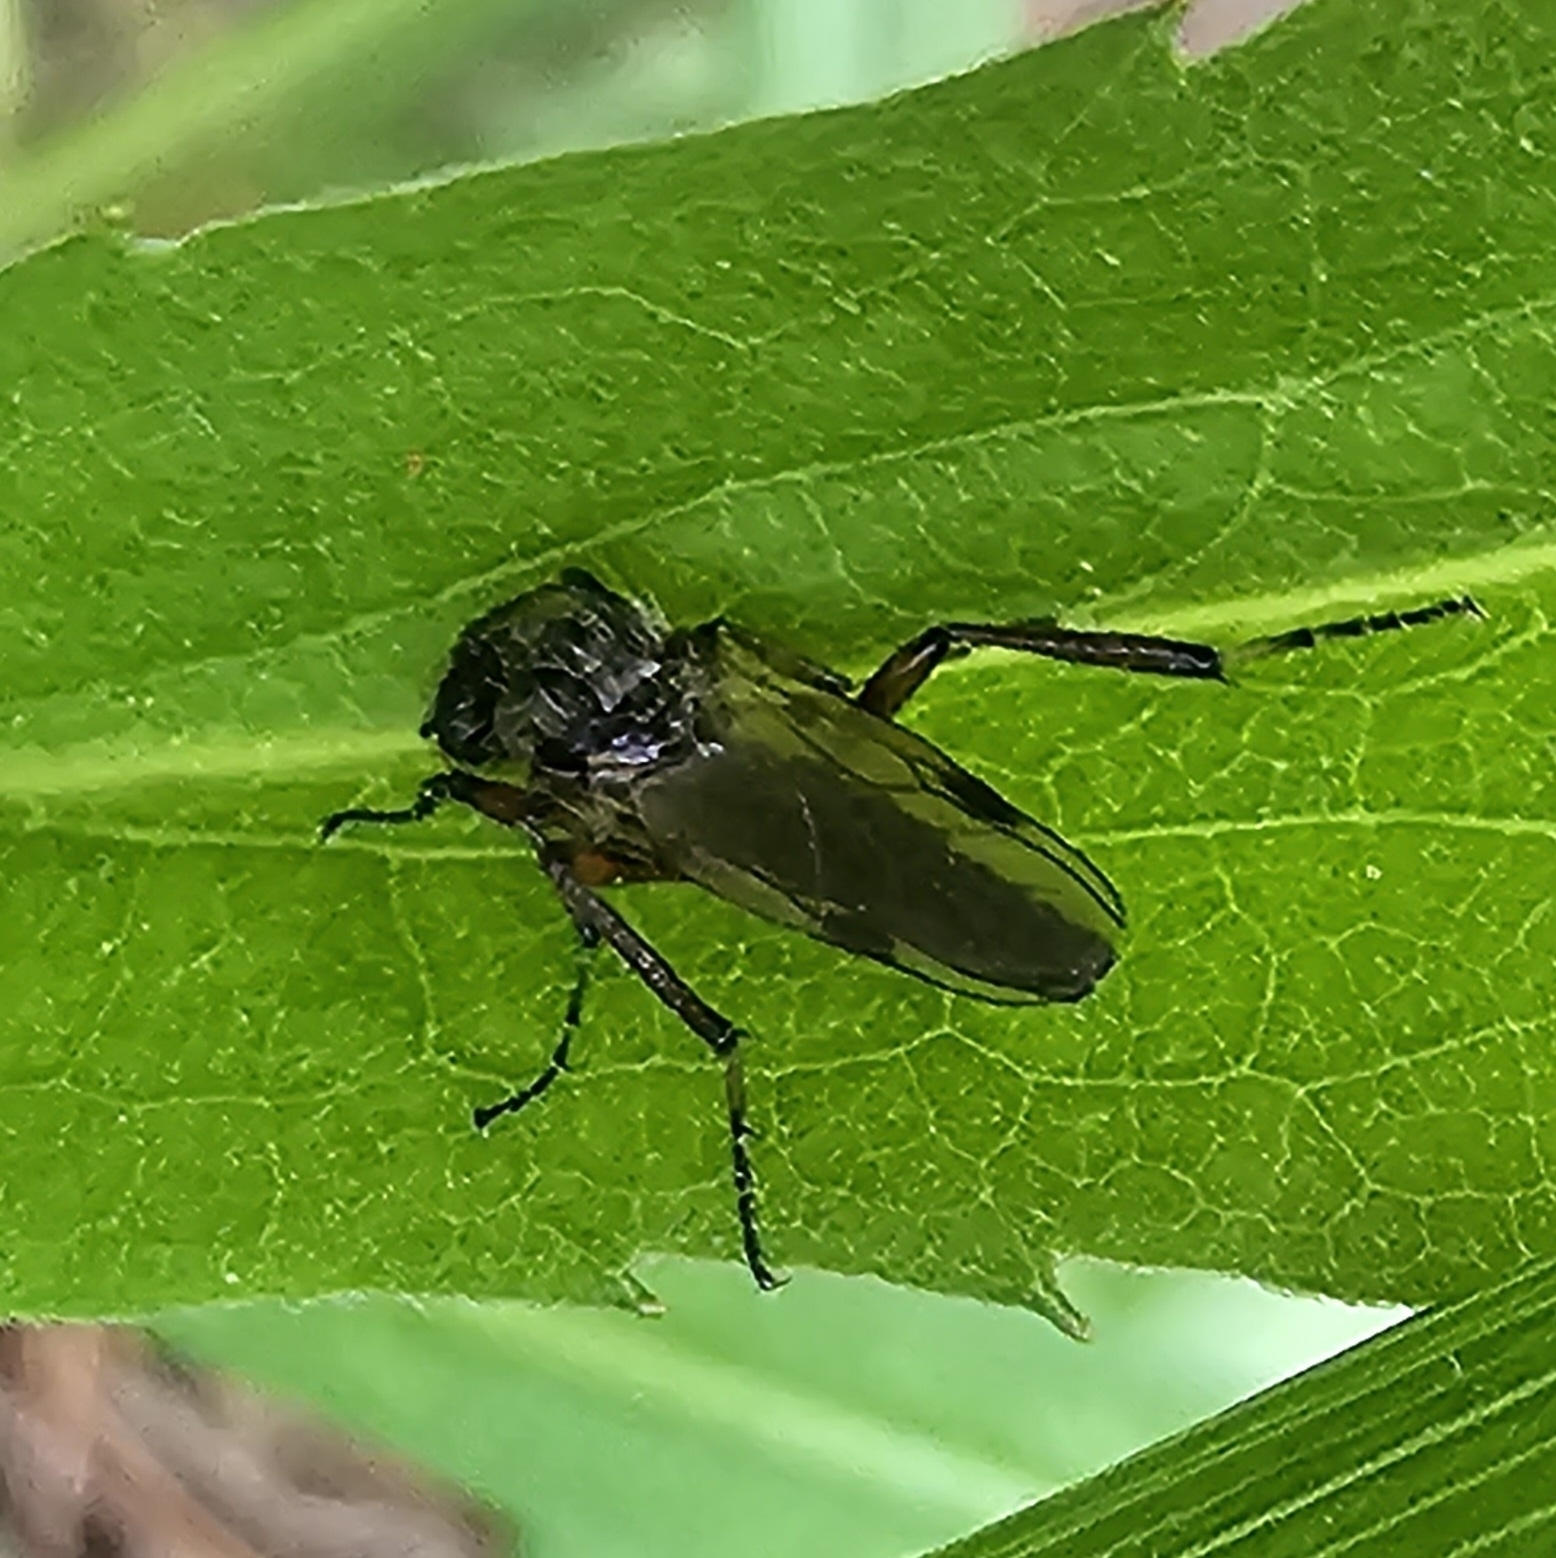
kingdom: Animalia
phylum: Arthropoda
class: Insecta
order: Diptera
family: Bibionidae
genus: Bibio
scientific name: Bibio articulatus
